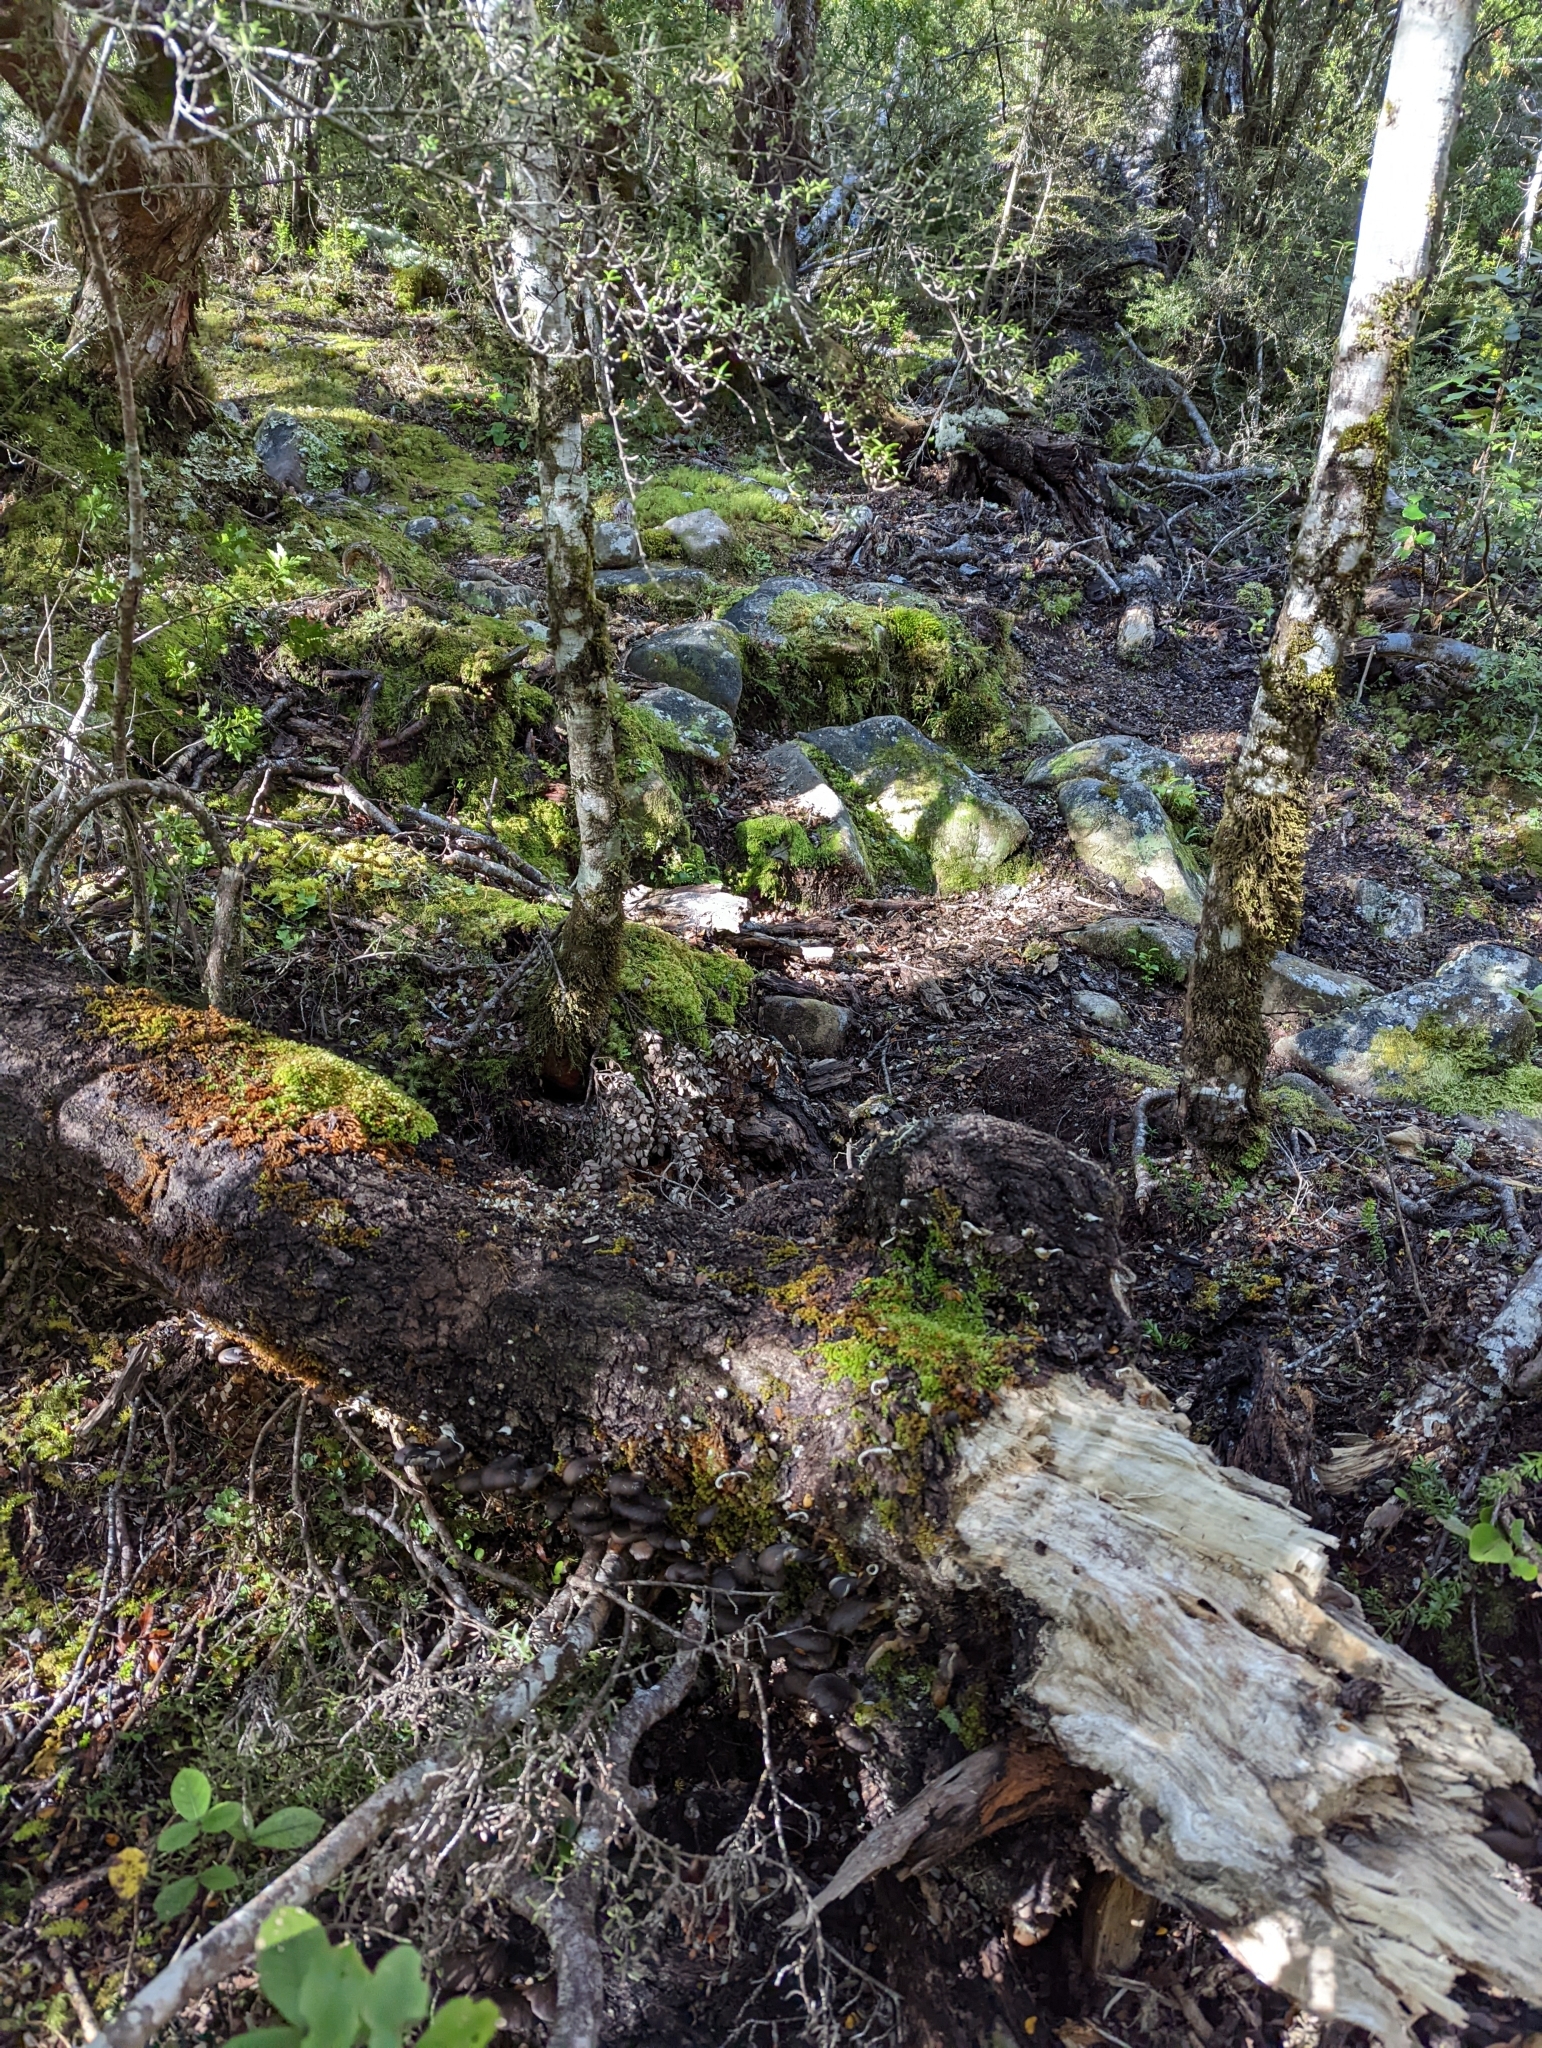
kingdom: Fungi
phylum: Basidiomycota
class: Agaricomycetes
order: Agaricales
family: Pleurotaceae
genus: Pleurotus
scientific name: Pleurotus purpureo-olivaceus
